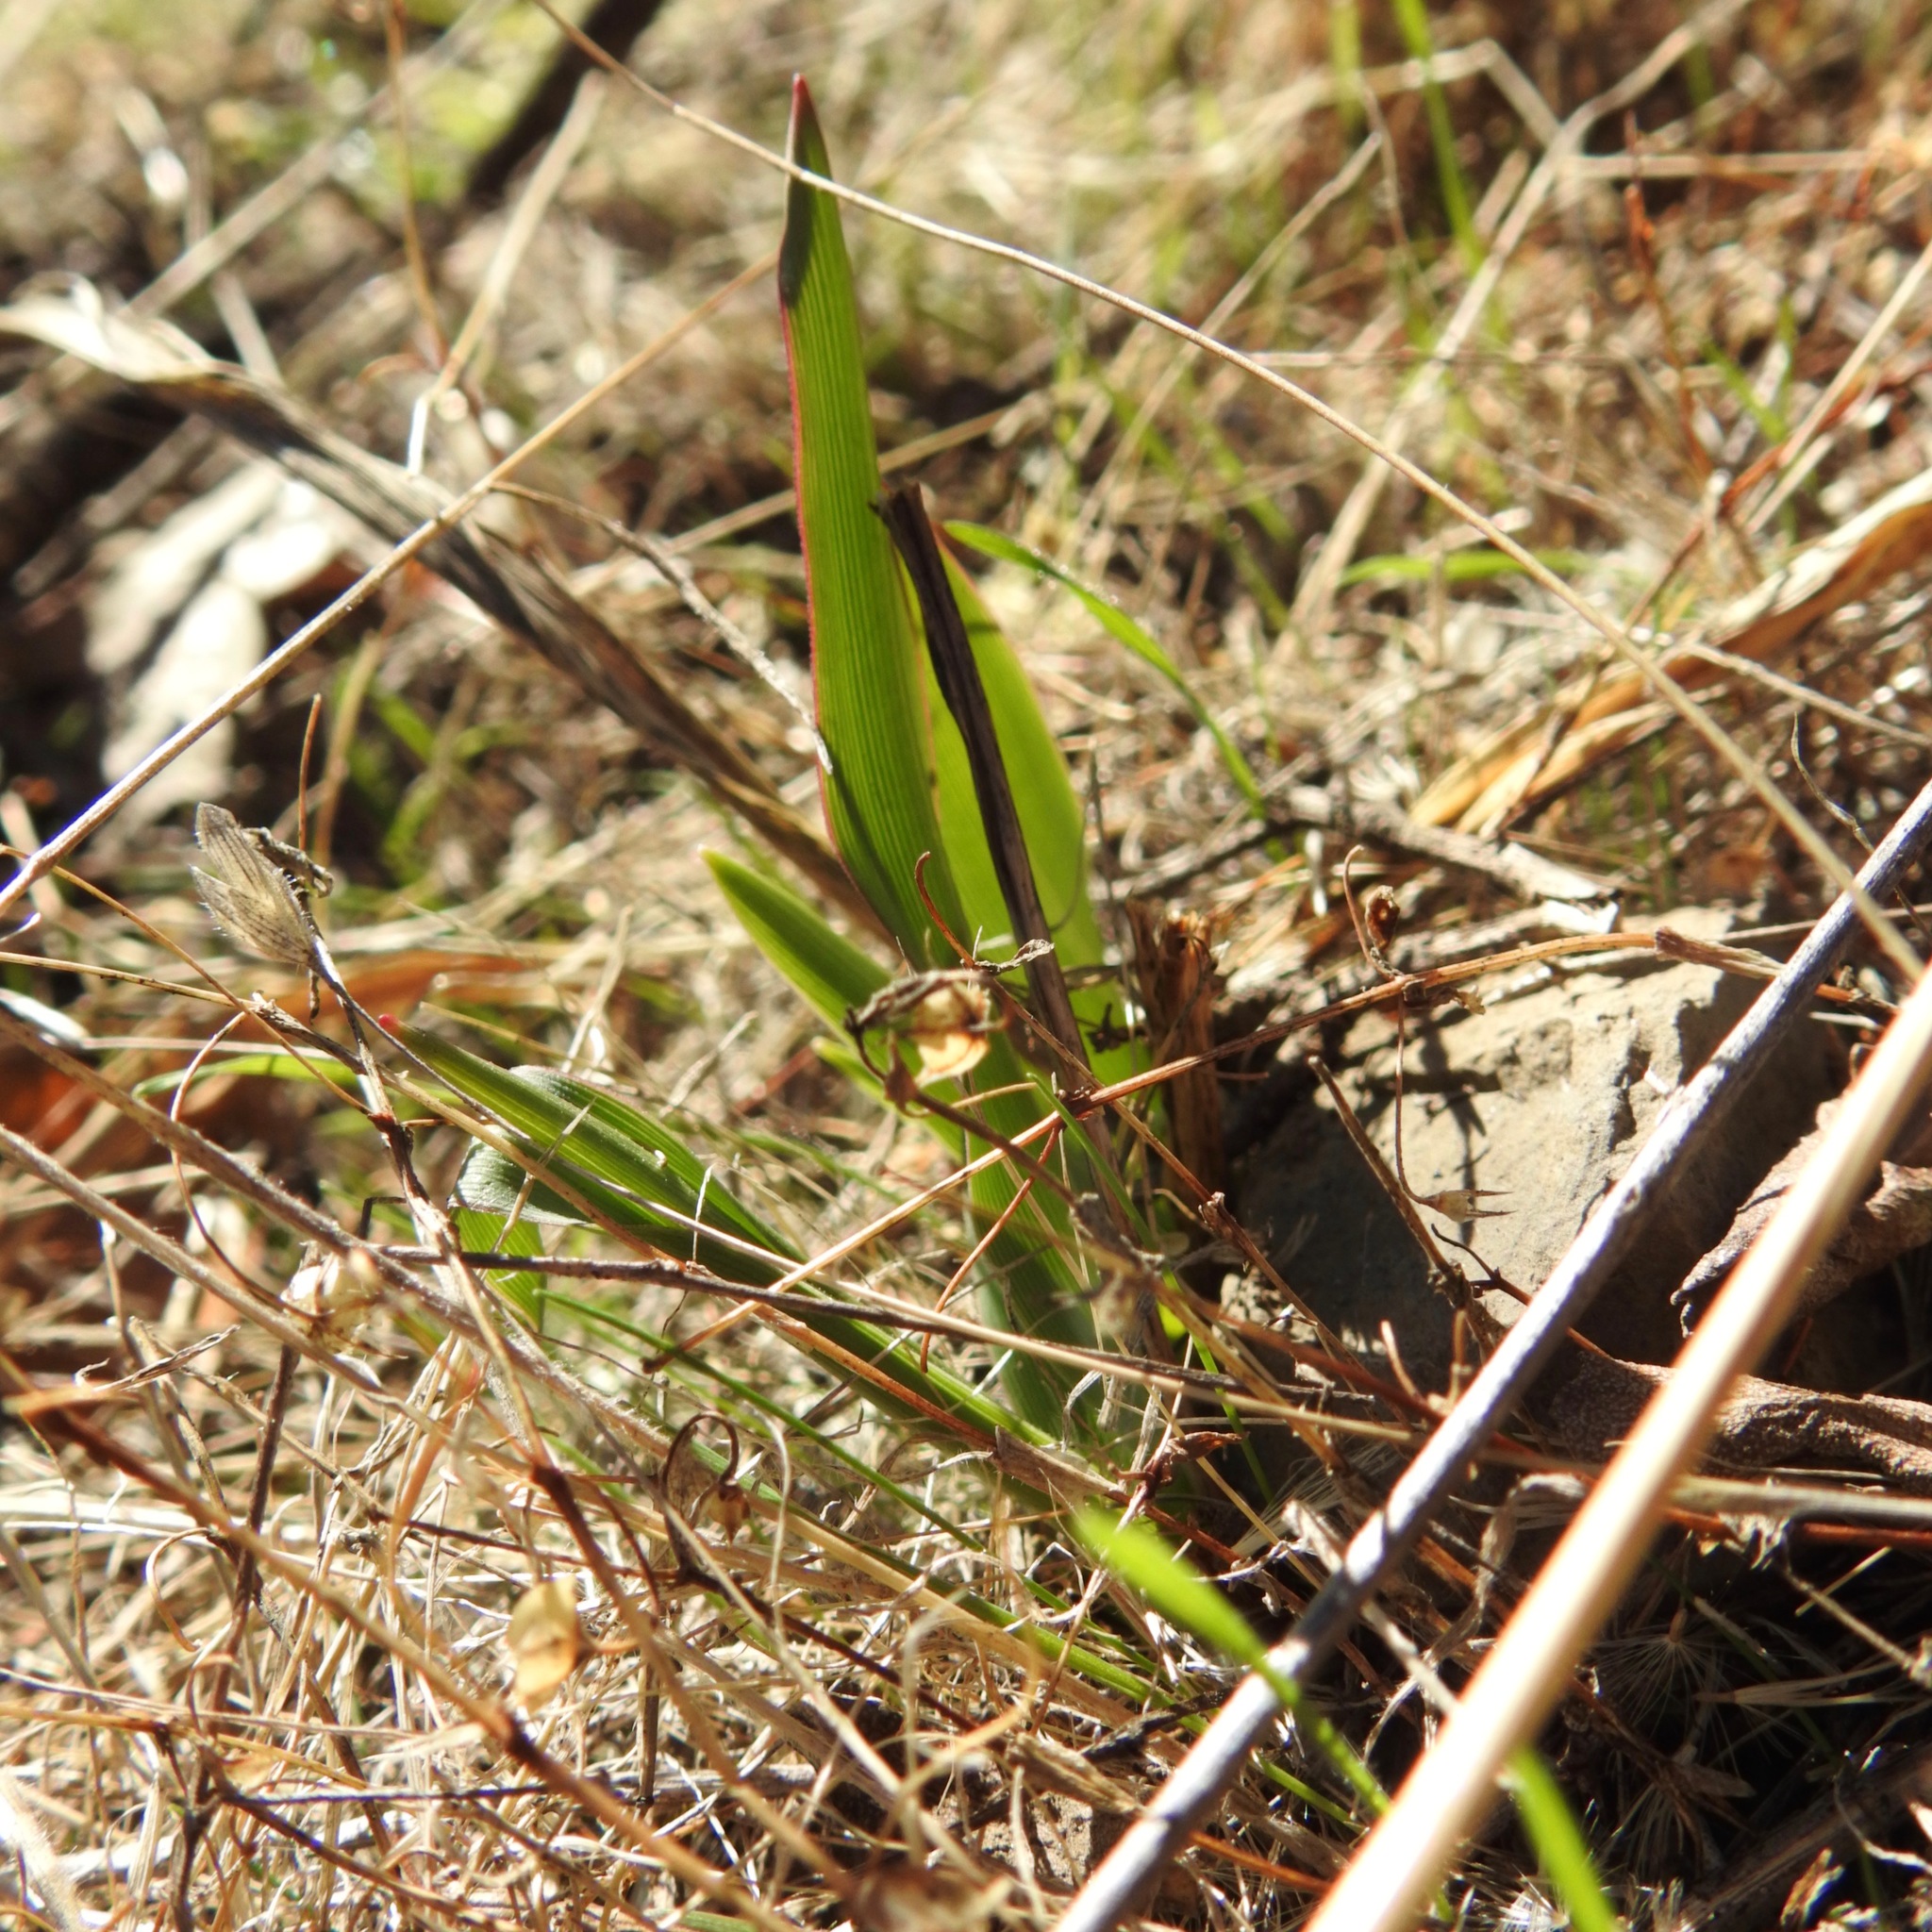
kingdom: Plantae
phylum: Tracheophyta
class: Liliopsida
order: Asparagales
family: Asparagaceae
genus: Chlorogalum
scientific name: Chlorogalum pomeridianum
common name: Amole
